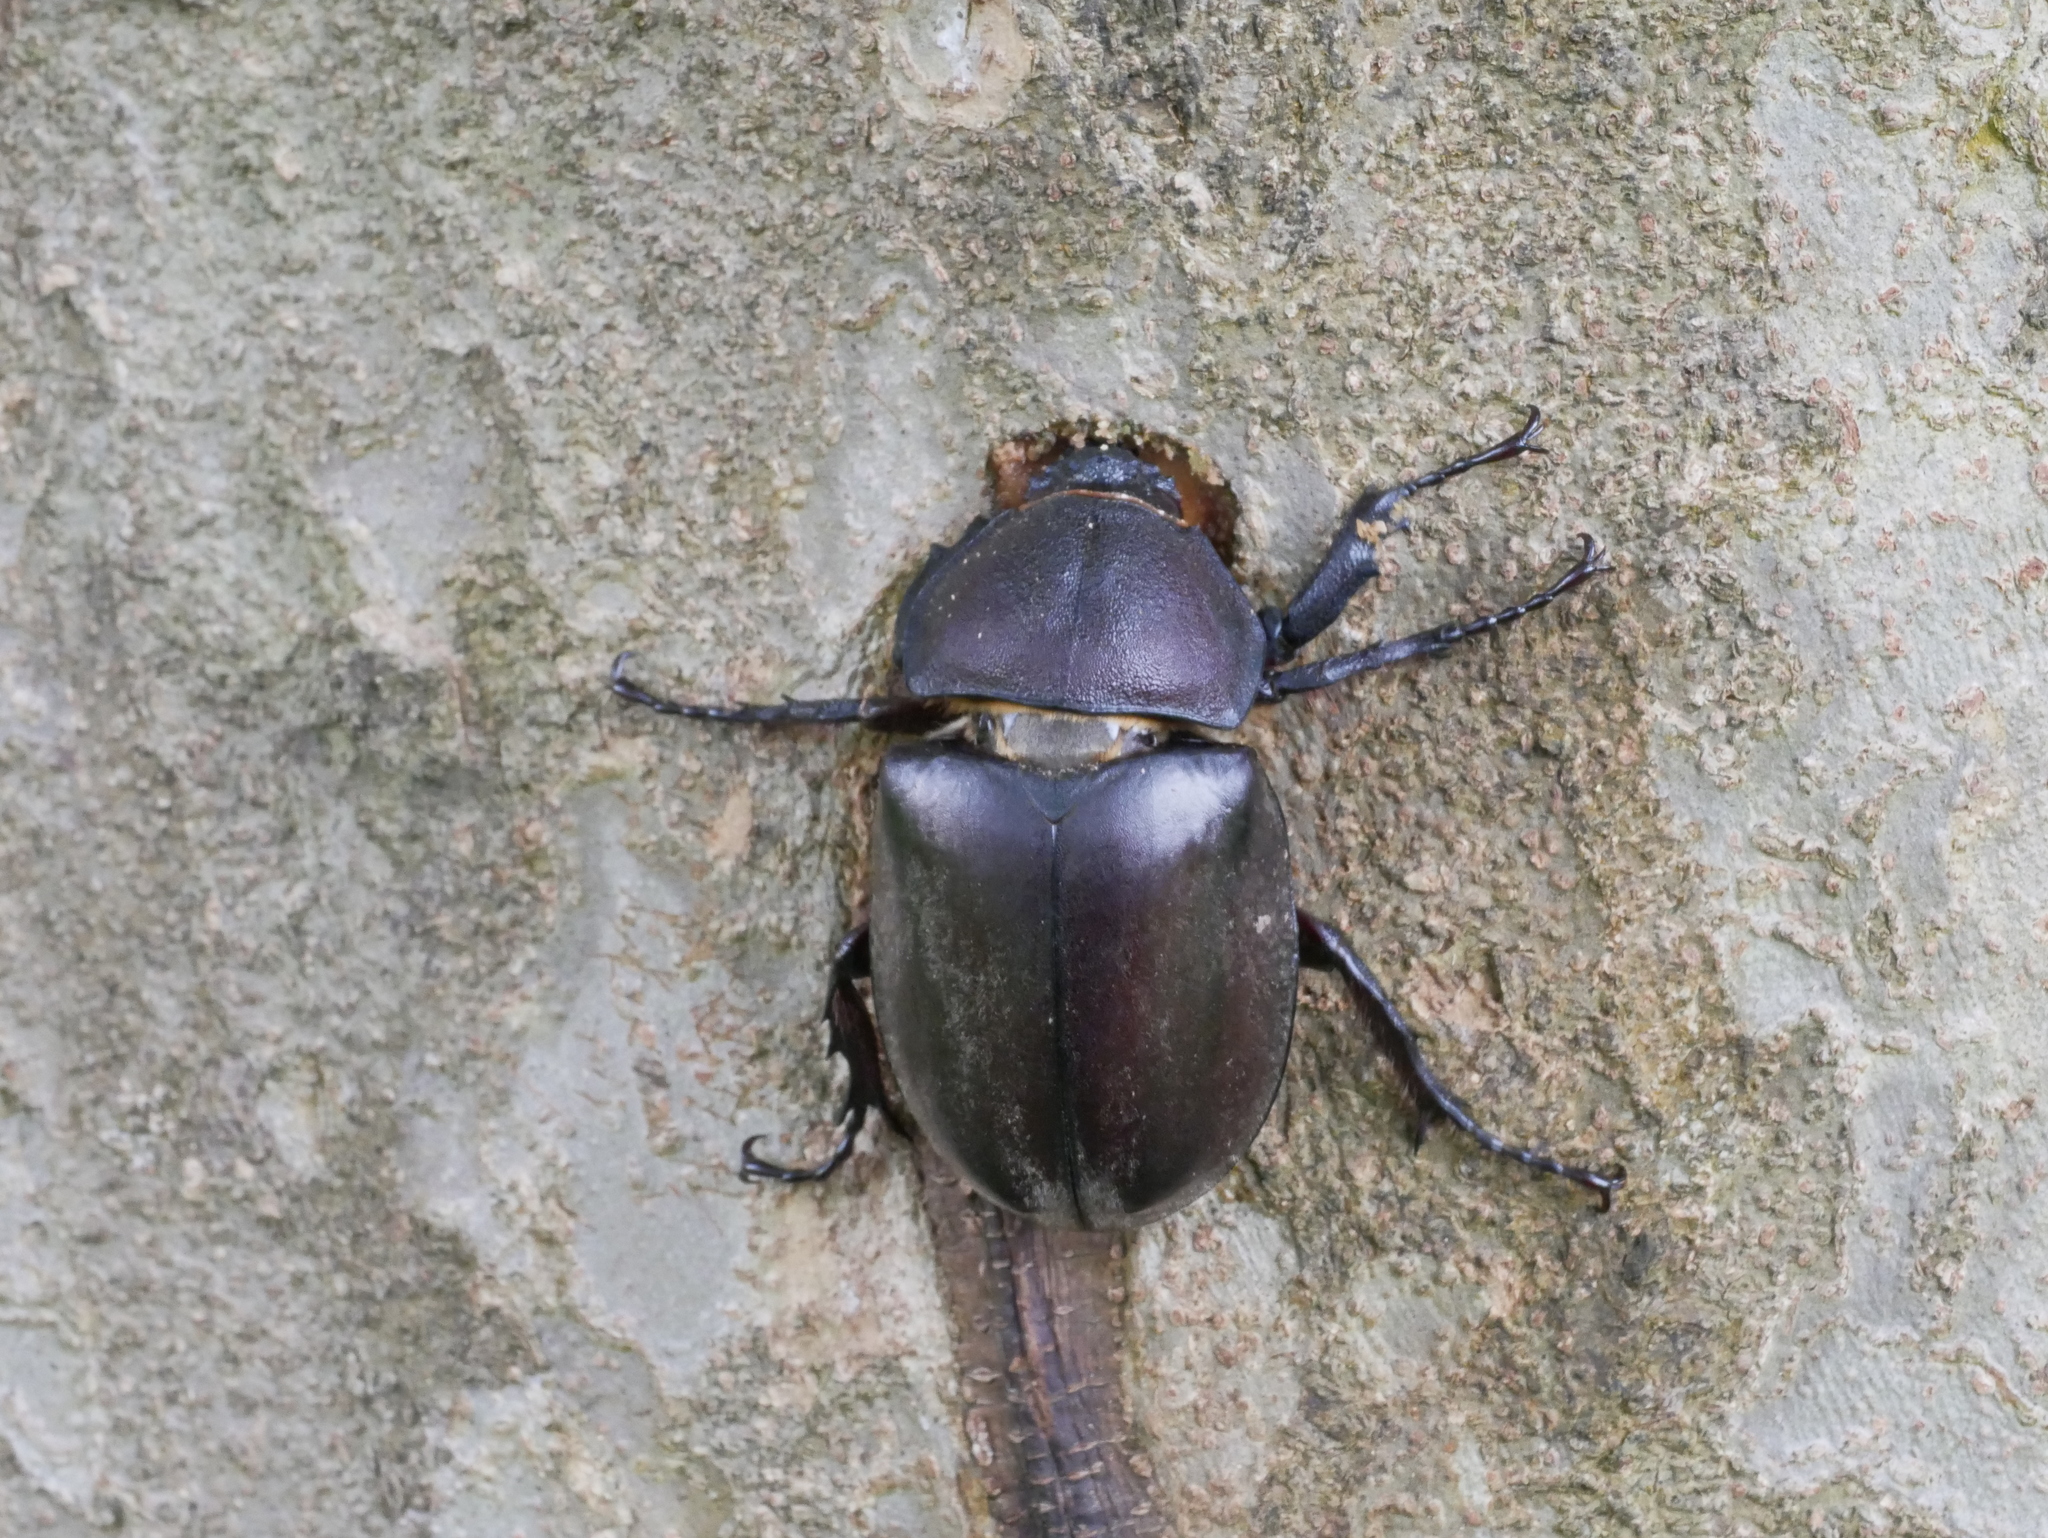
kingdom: Animalia
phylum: Arthropoda
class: Insecta
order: Coleoptera
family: Scarabaeidae
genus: Trypoxylus
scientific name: Trypoxylus dichotomus
